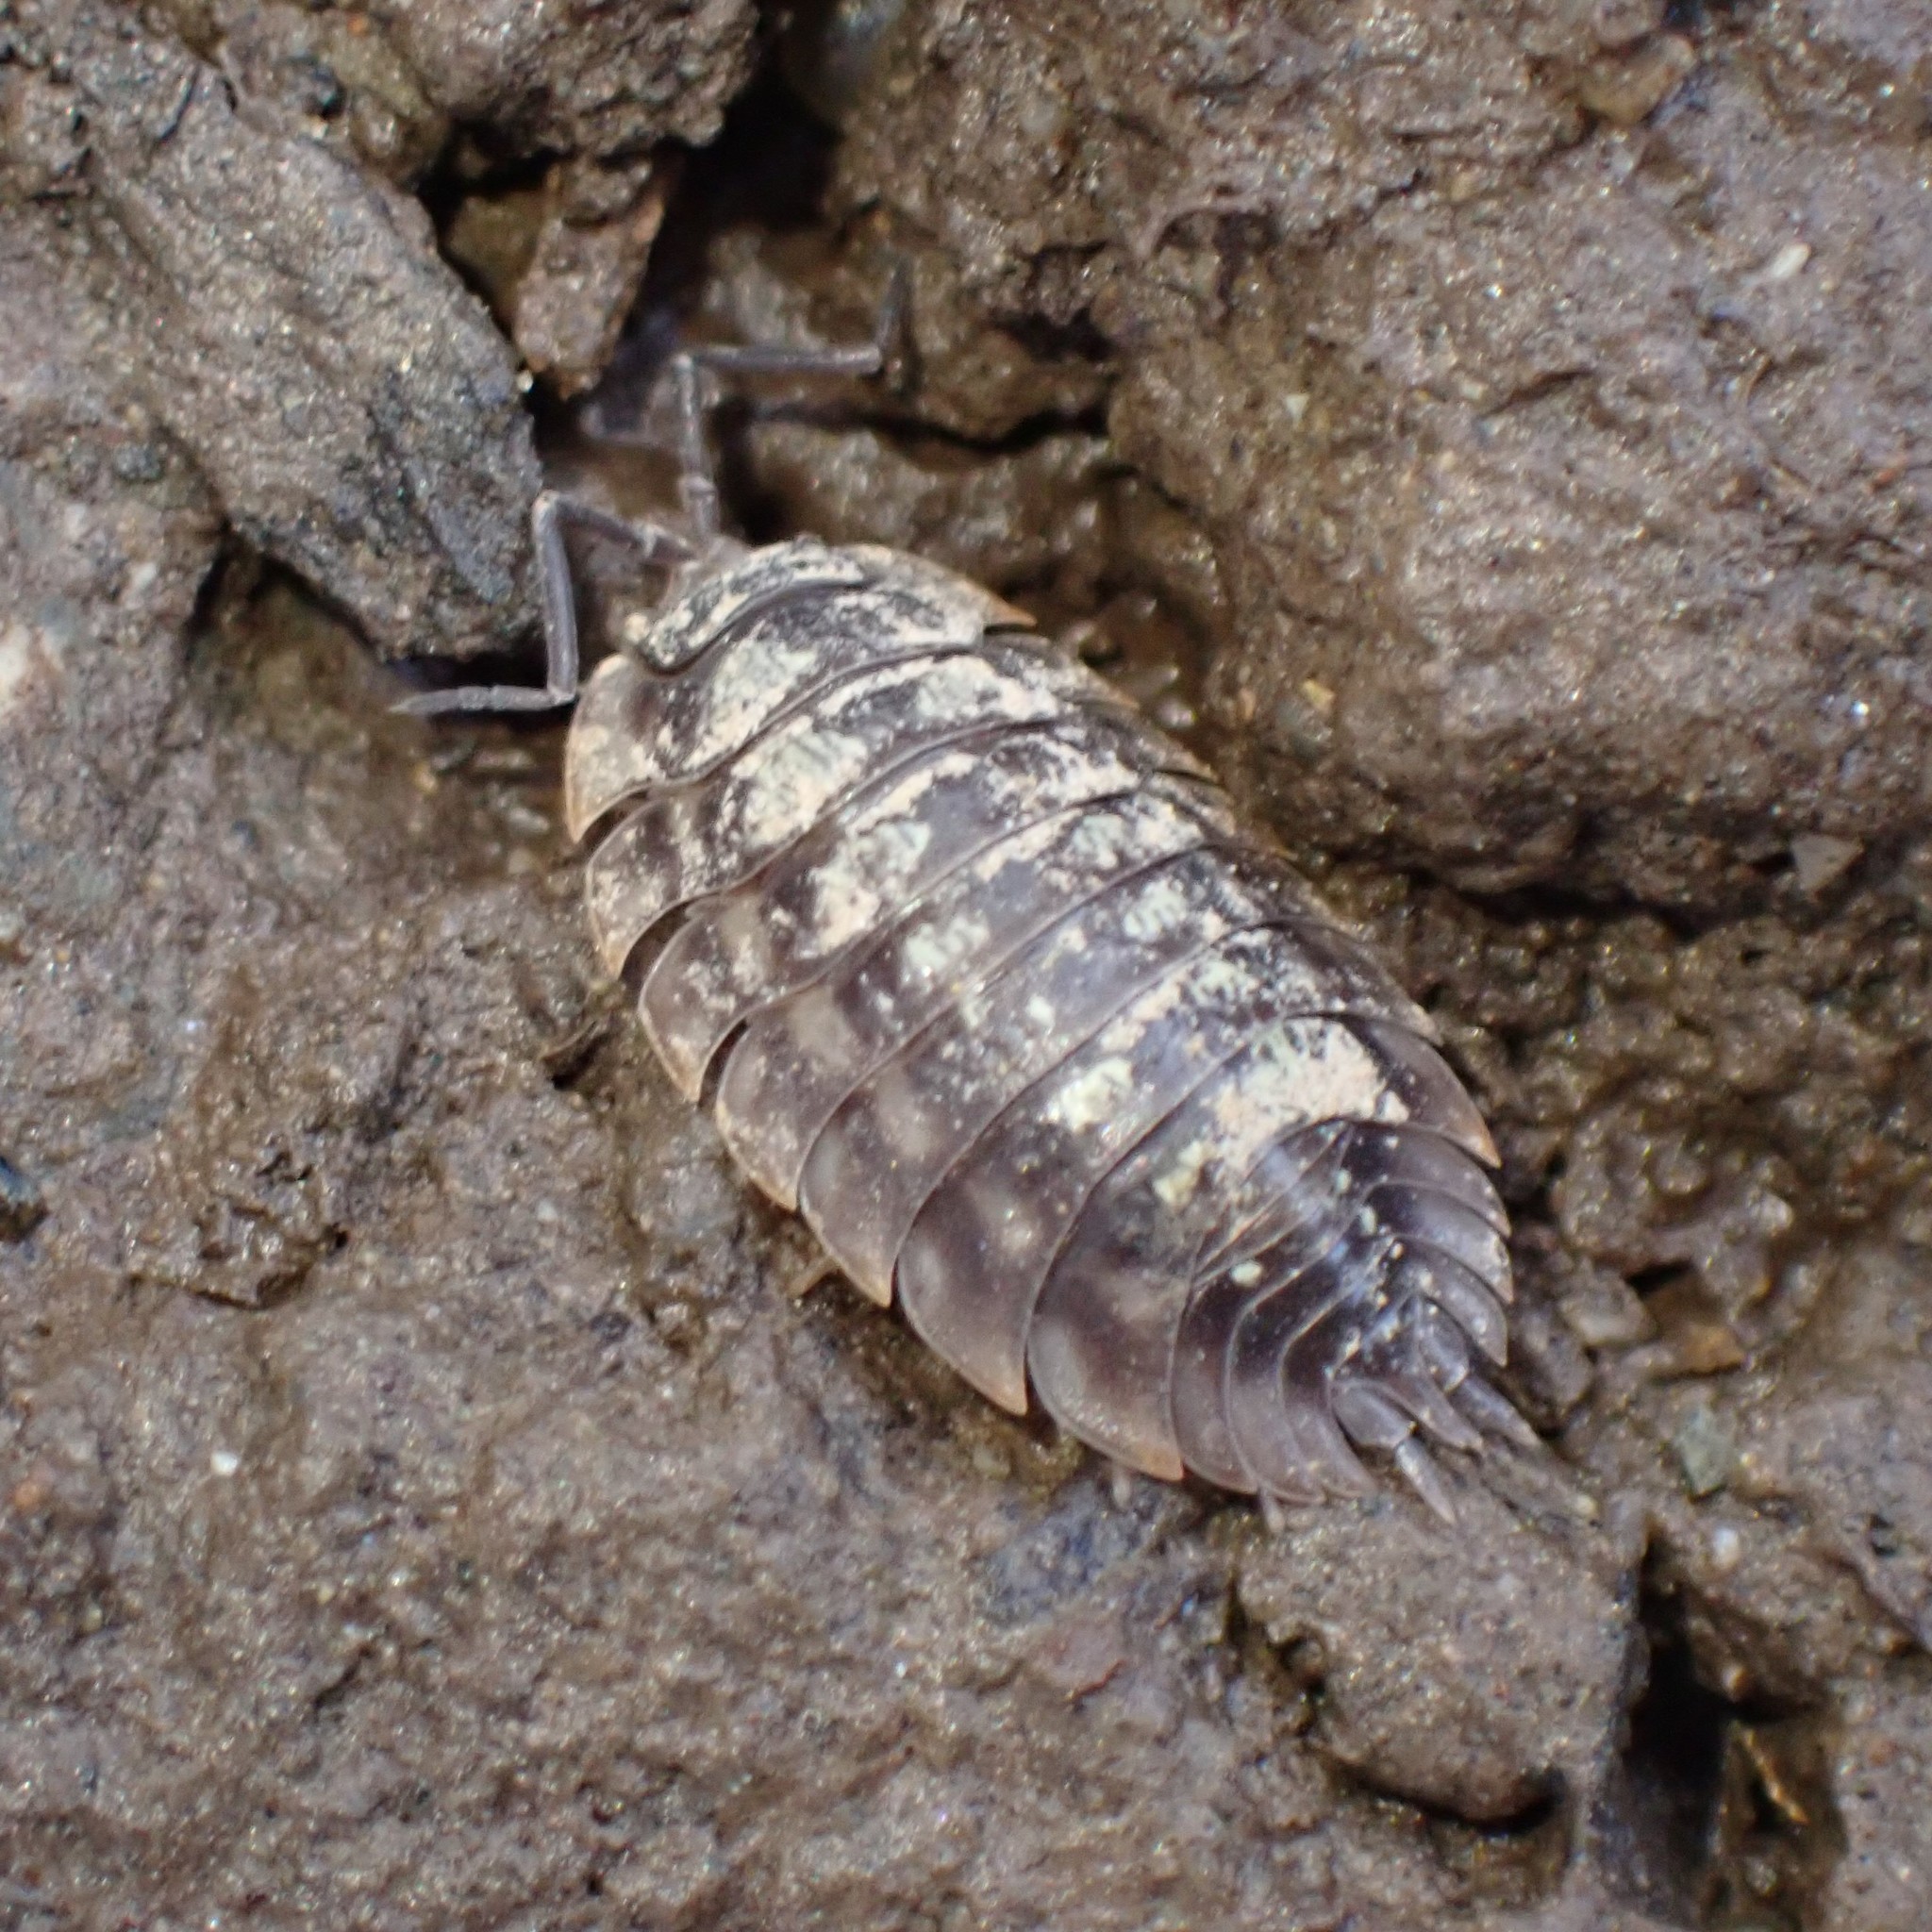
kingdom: Animalia
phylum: Arthropoda
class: Malacostraca
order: Isopoda
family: Oniscidae
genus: Oniscus
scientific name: Oniscus asellus
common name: Common shiny woodlouse
